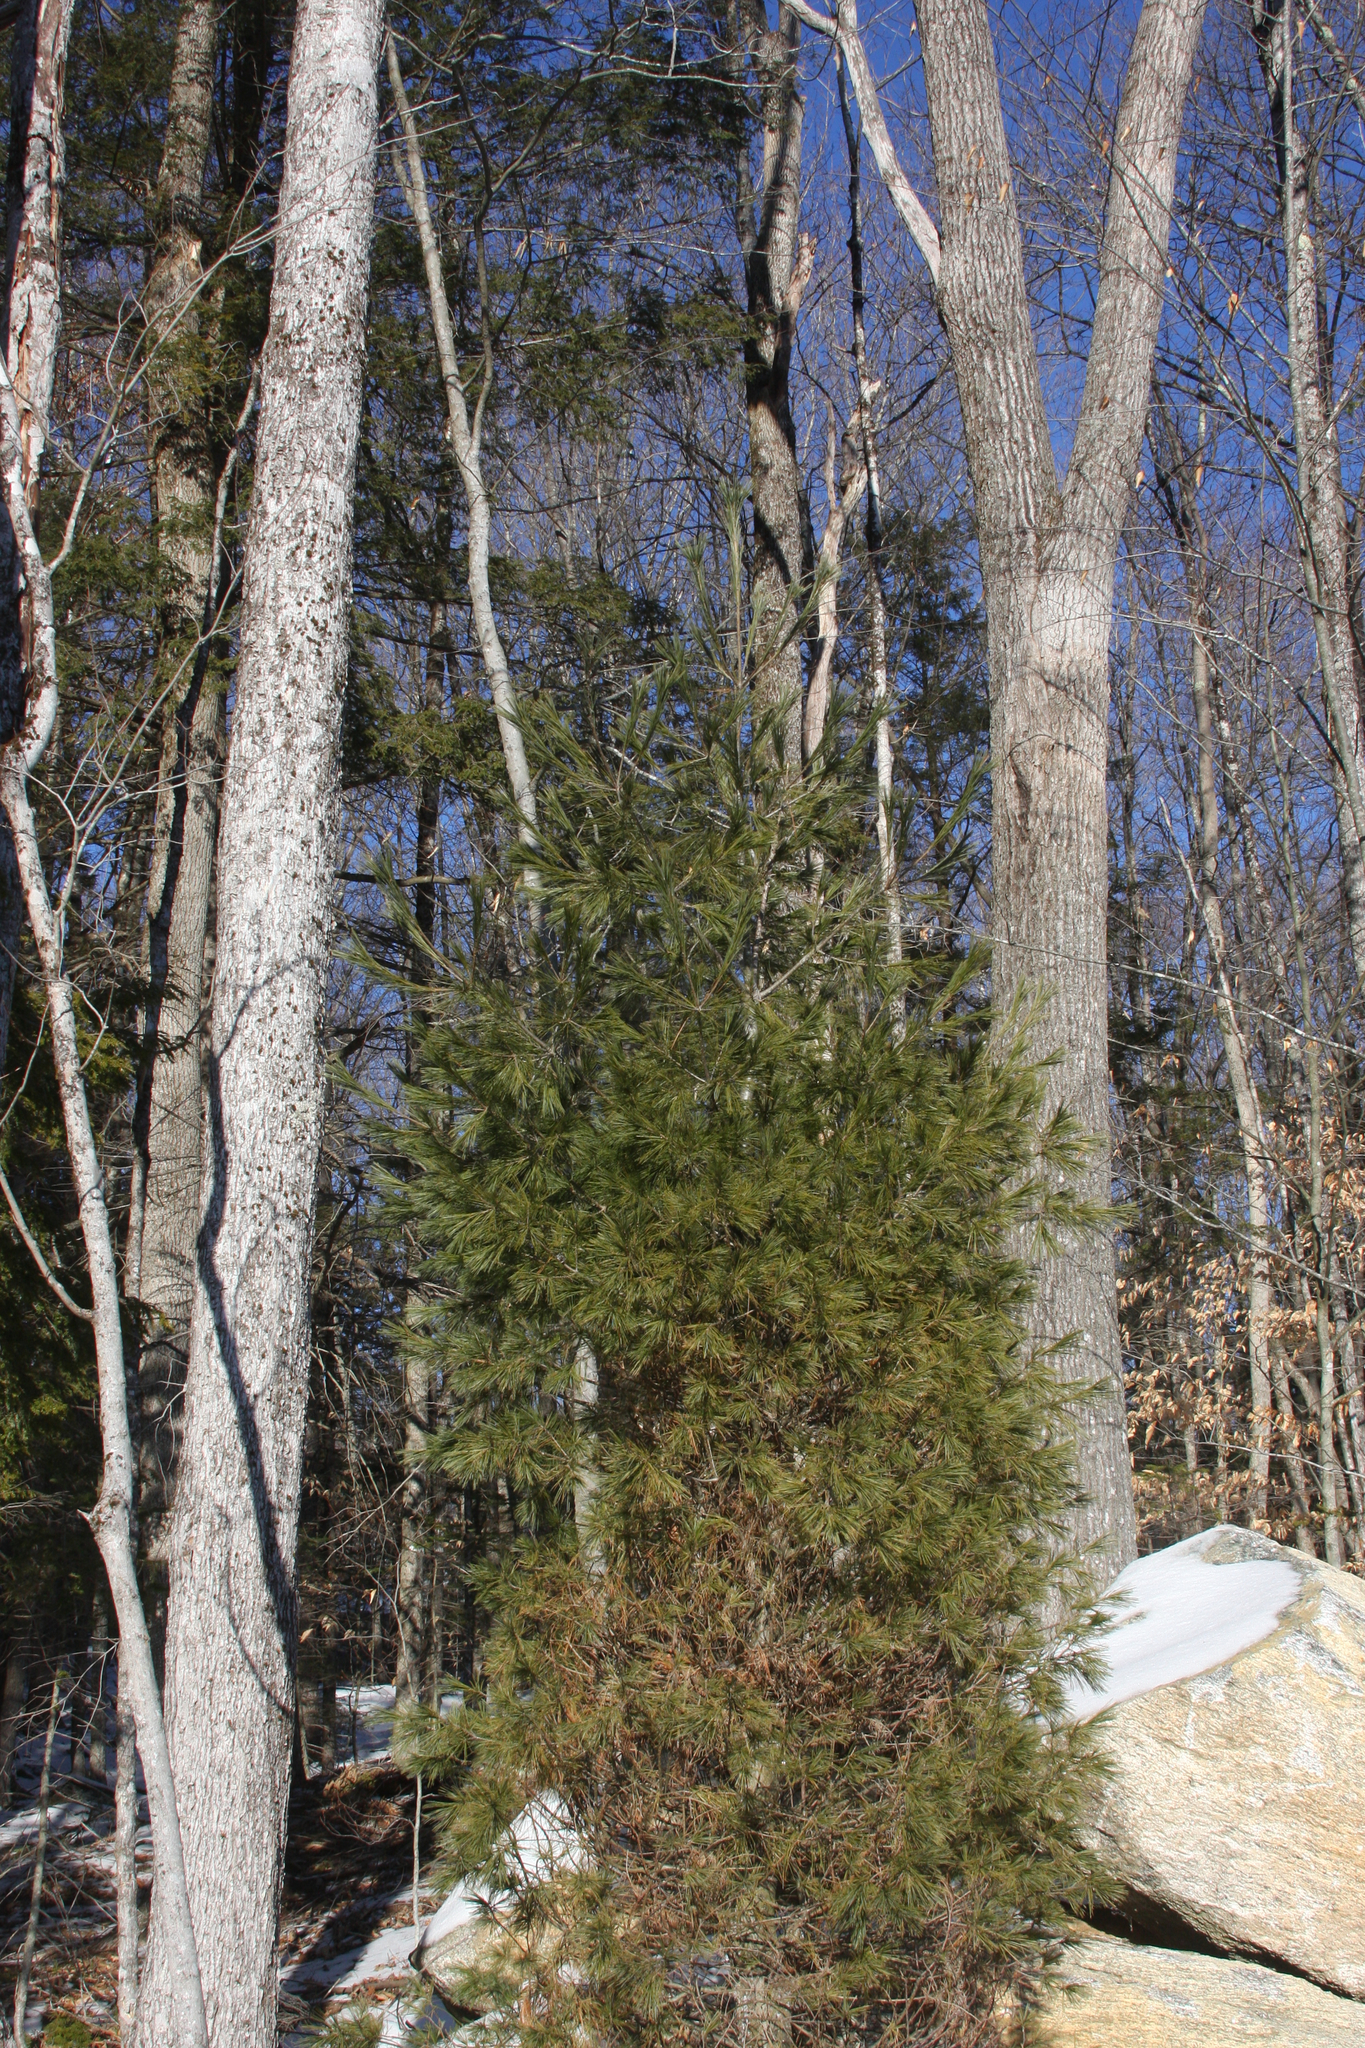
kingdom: Plantae
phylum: Tracheophyta
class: Pinopsida
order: Pinales
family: Pinaceae
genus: Pinus
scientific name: Pinus strobus
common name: Weymouth pine
